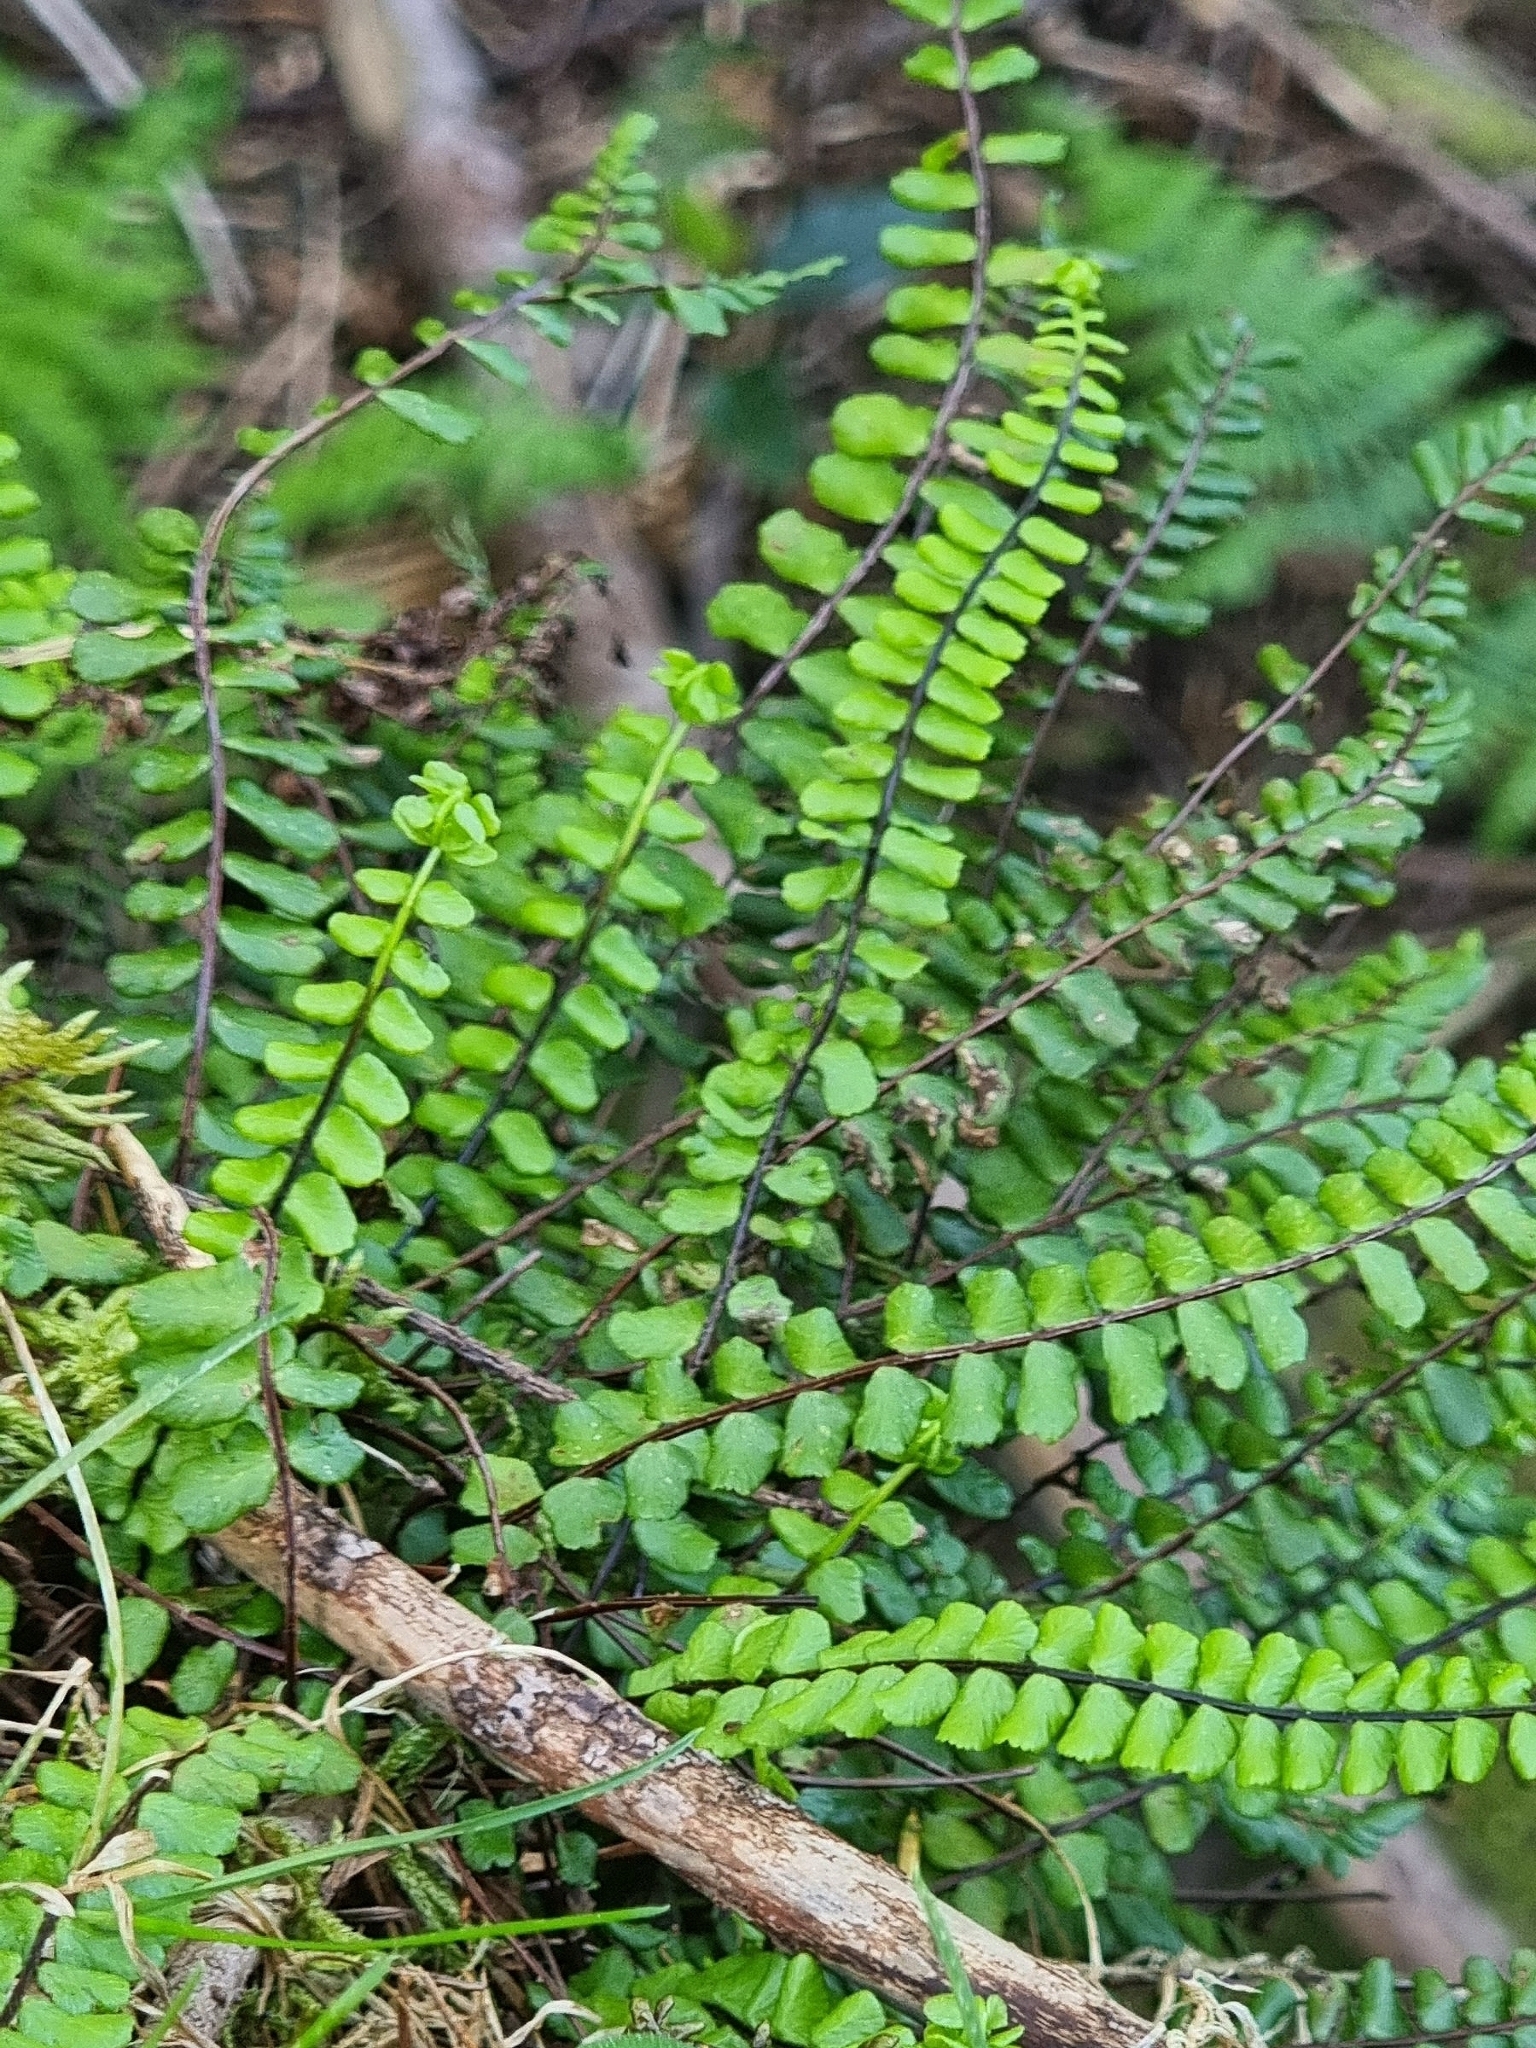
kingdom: Plantae
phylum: Tracheophyta
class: Polypodiopsida
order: Polypodiales
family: Aspleniaceae
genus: Asplenium
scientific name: Asplenium trichomanes
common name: Maidenhair spleenwort
